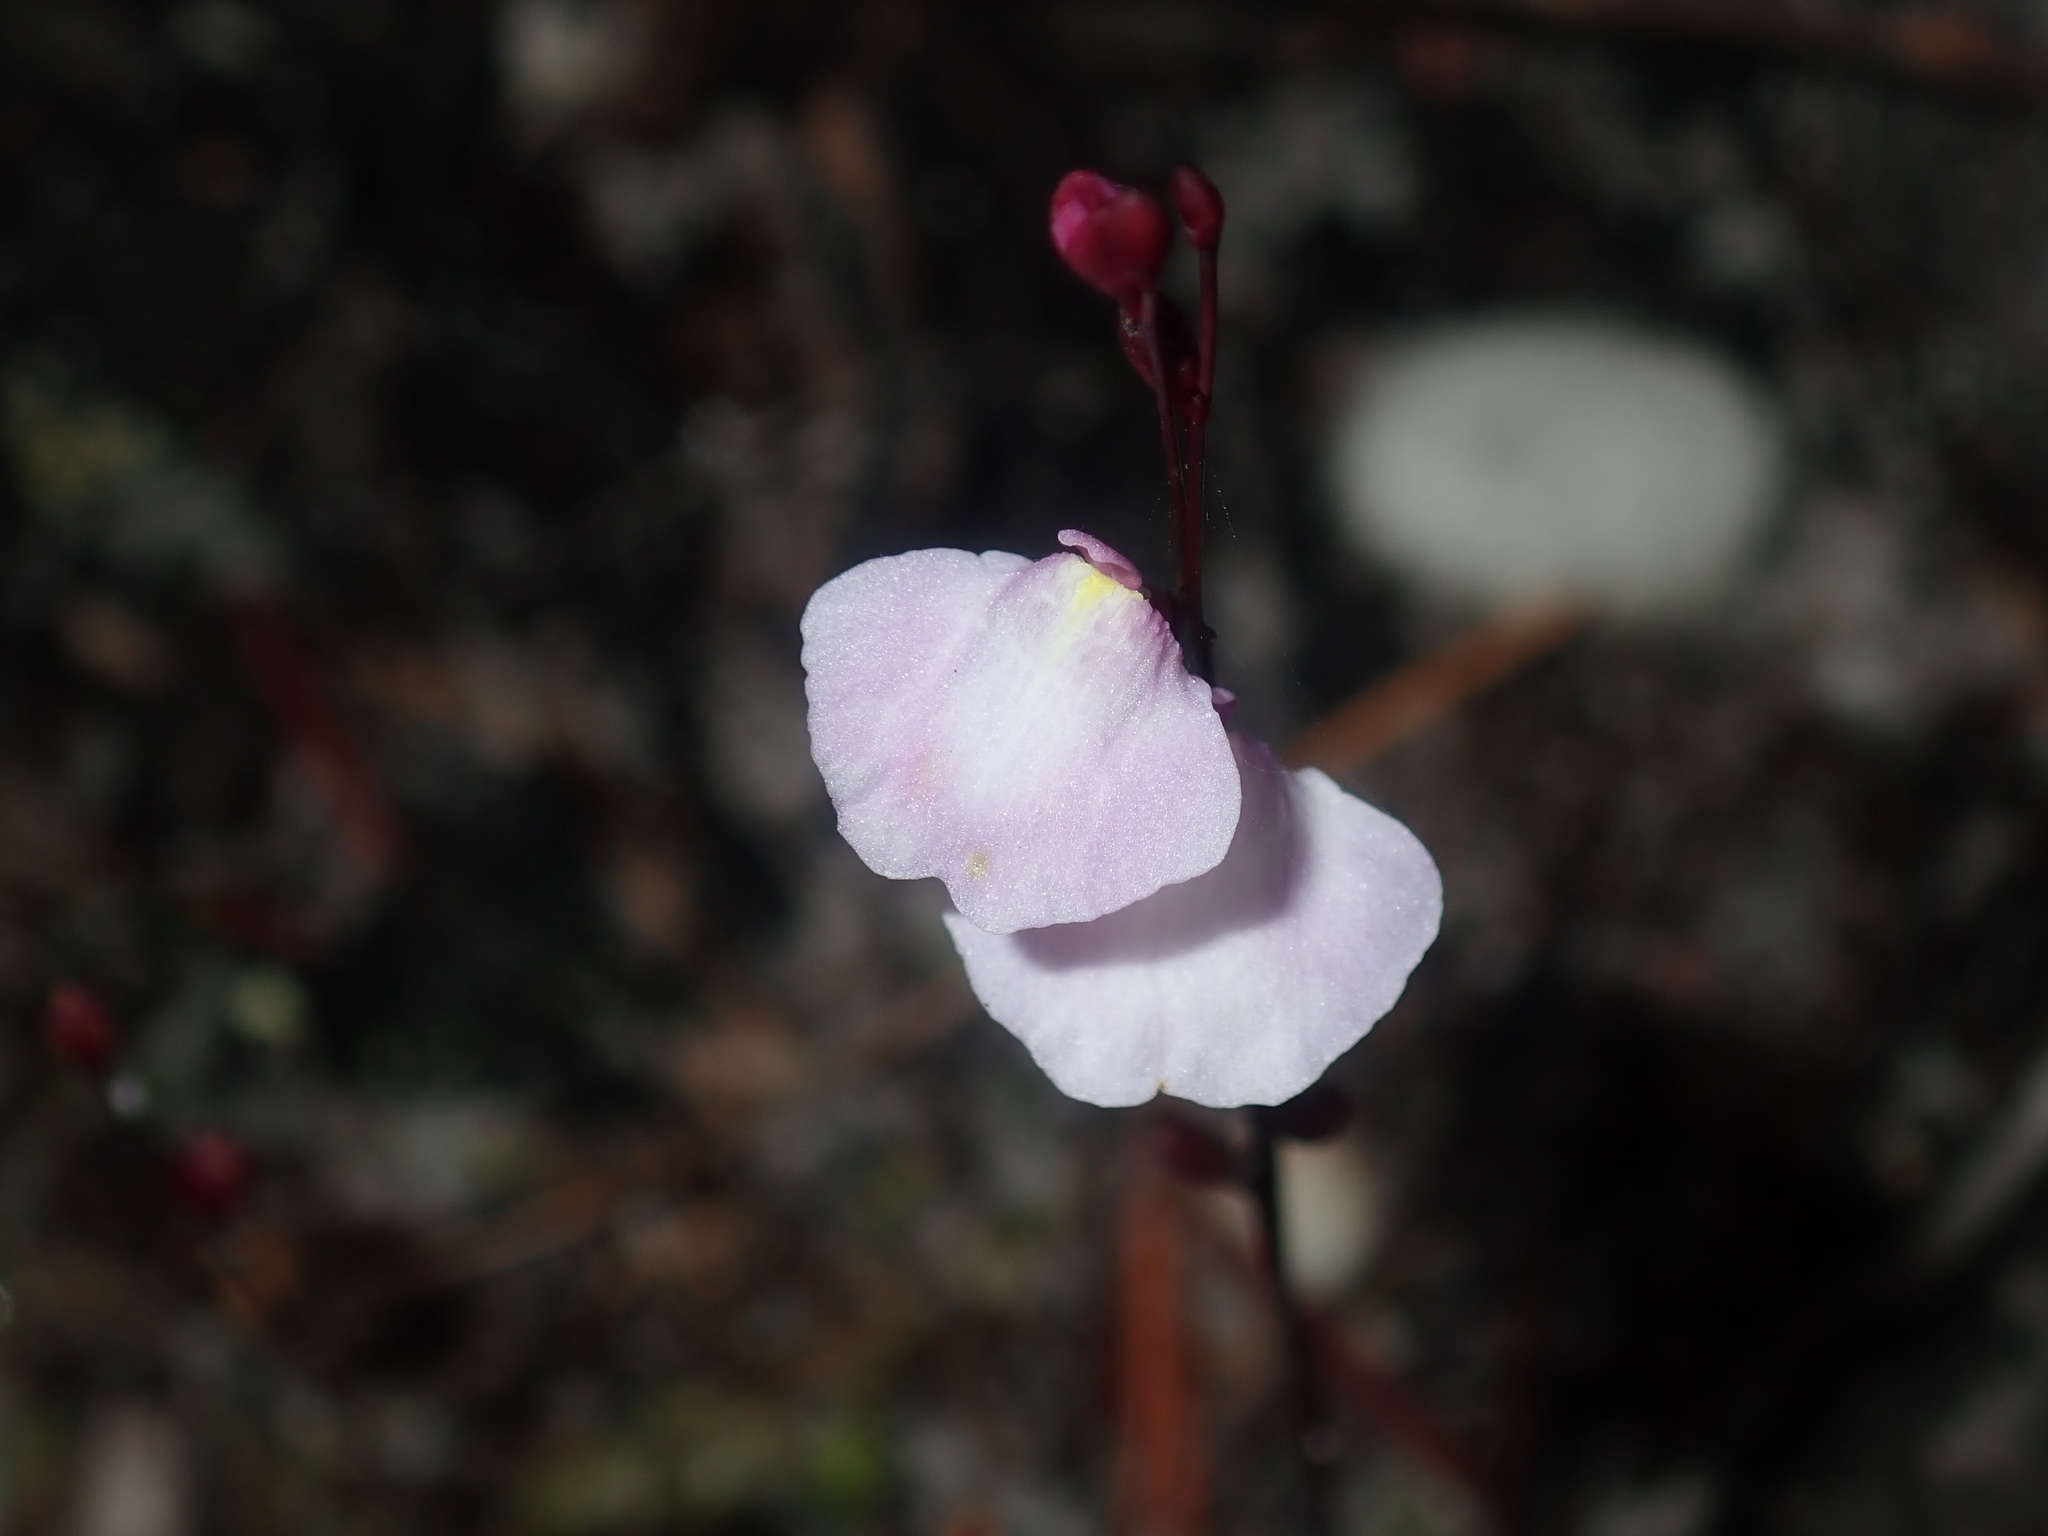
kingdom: Plantae
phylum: Tracheophyta
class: Magnoliopsida
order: Lamiales
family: Lentibulariaceae
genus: Utricularia
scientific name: Utricularia lateriflora
